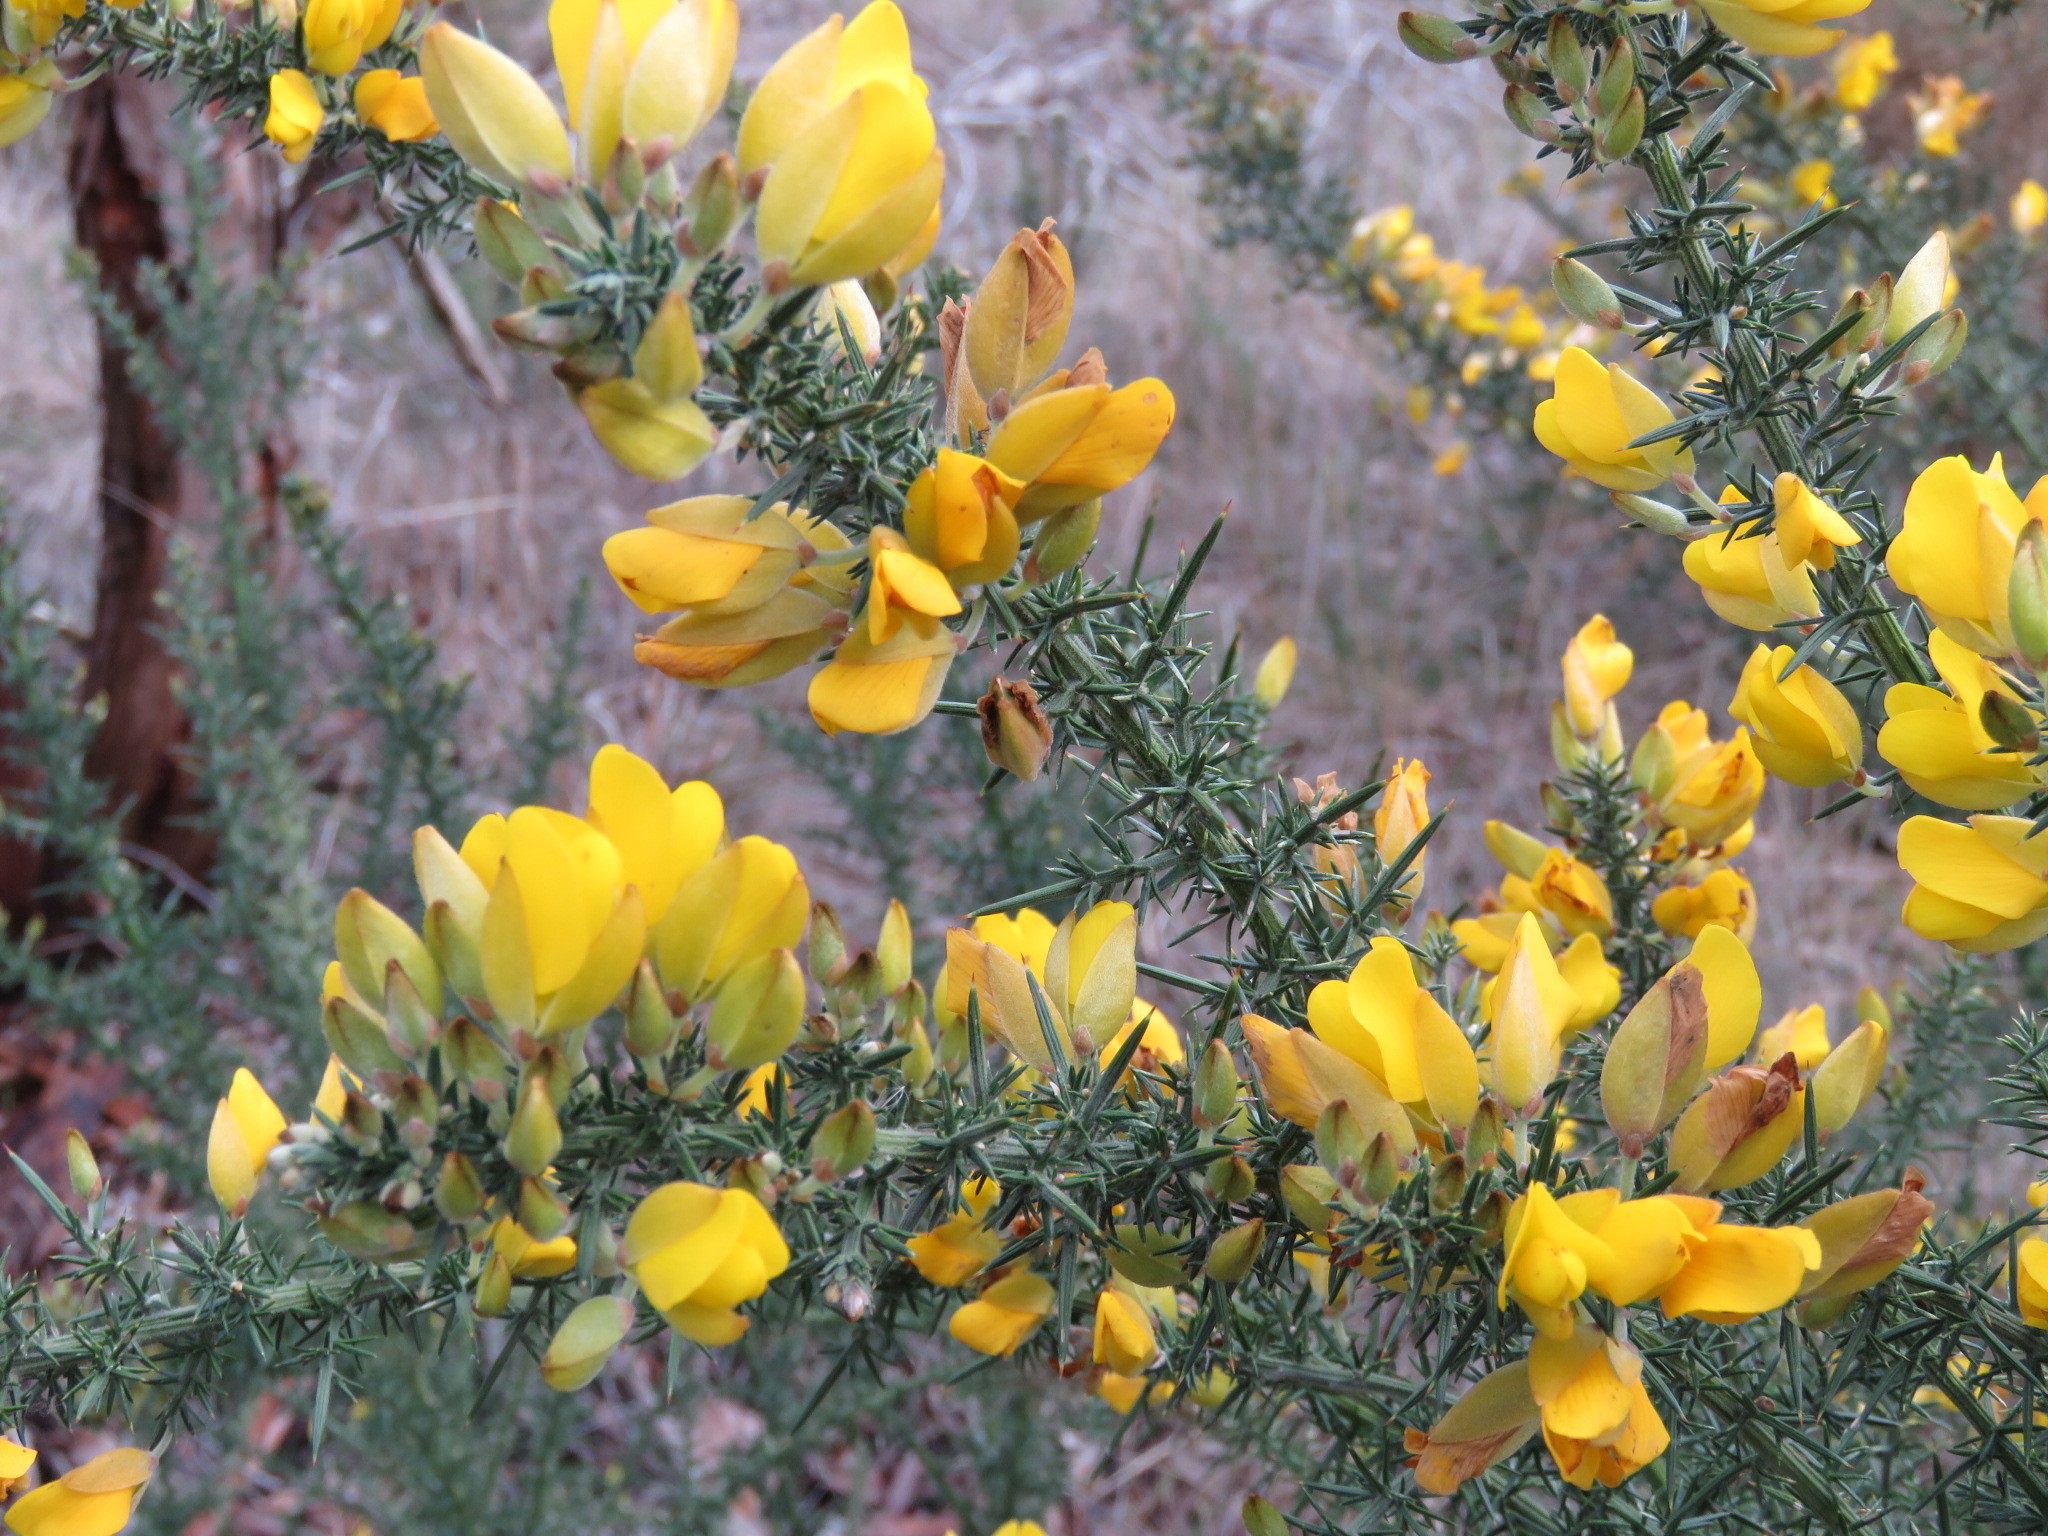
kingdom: Plantae
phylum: Tracheophyta
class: Magnoliopsida
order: Fabales
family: Fabaceae
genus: Ulex
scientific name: Ulex europaeus
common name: Common gorse
